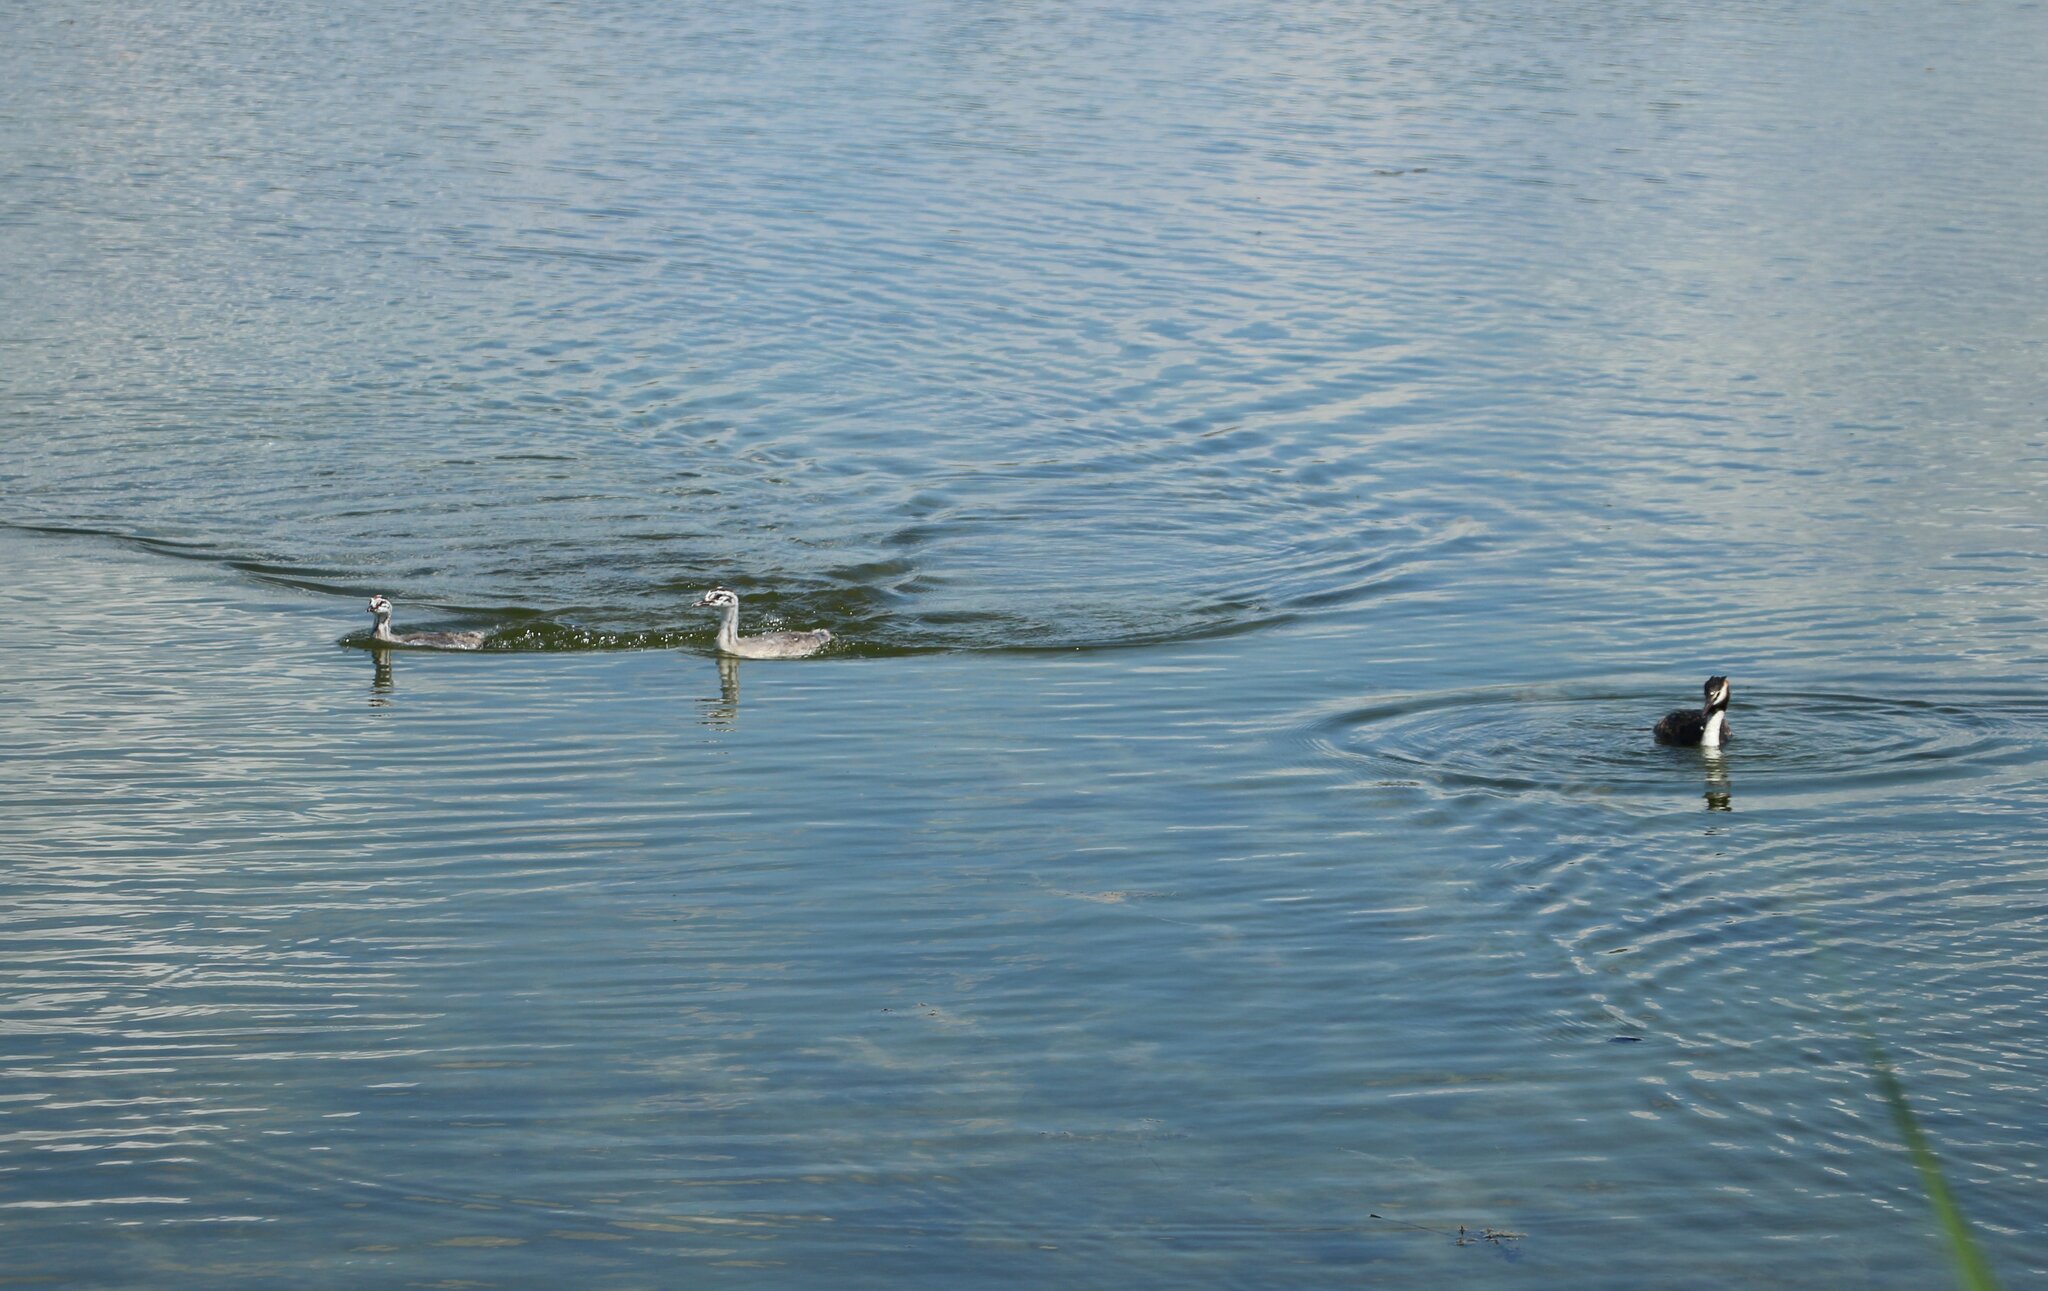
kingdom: Animalia
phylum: Chordata
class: Aves
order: Podicipediformes
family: Podicipedidae
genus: Podiceps
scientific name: Podiceps cristatus
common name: Great crested grebe
